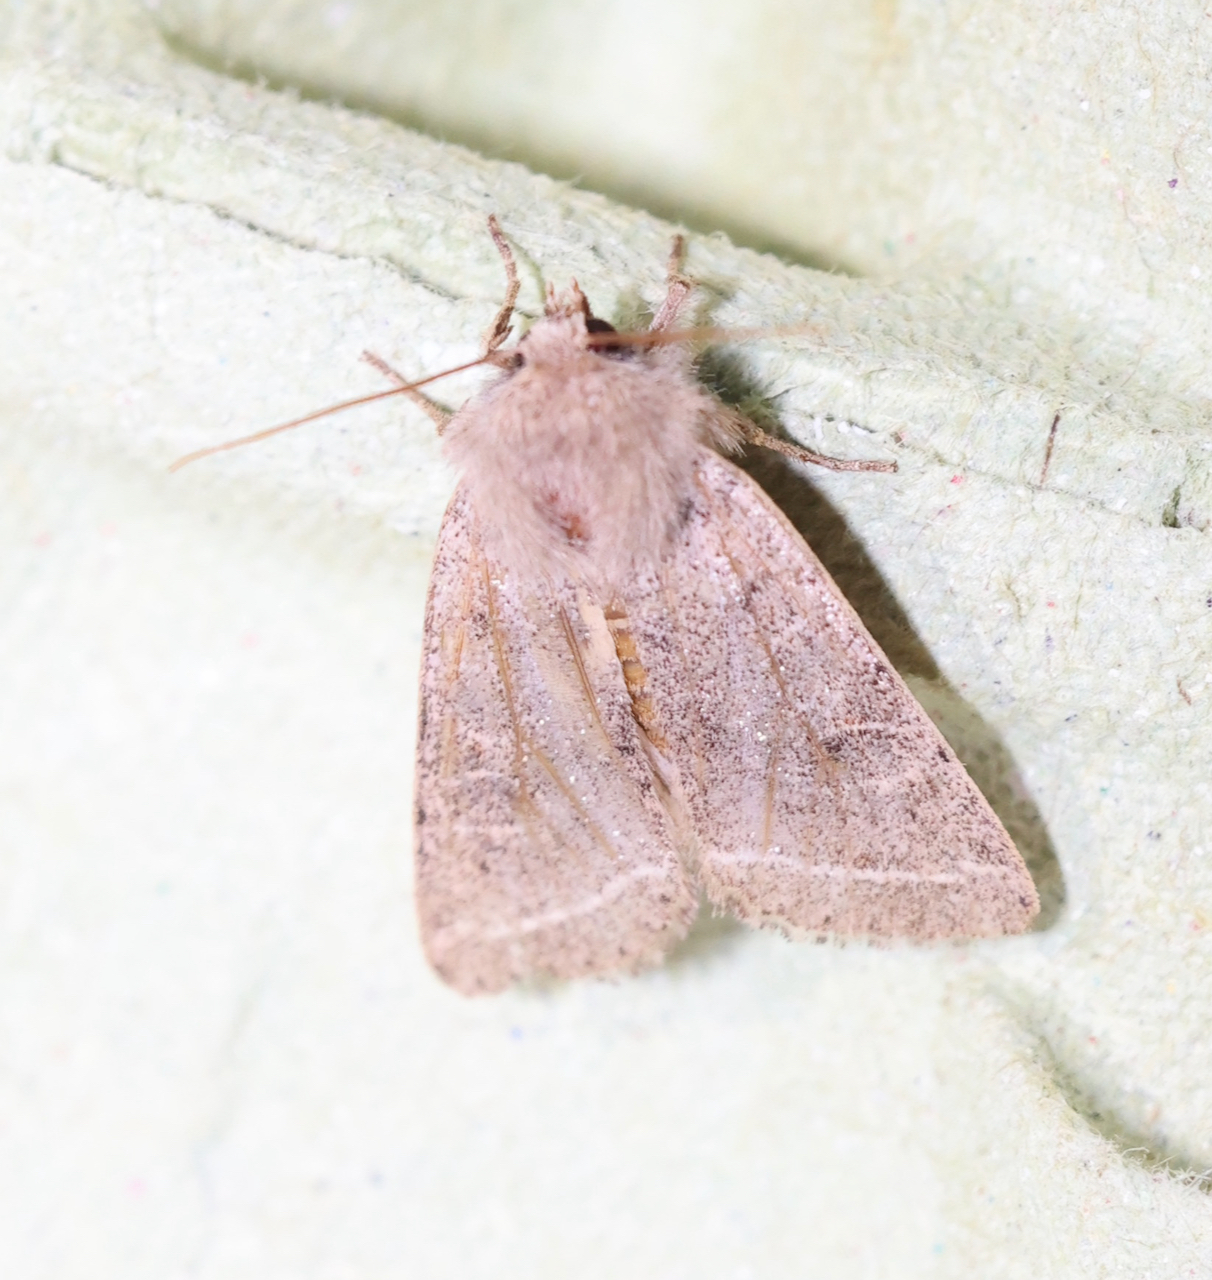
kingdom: Animalia
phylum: Arthropoda
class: Insecta
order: Lepidoptera
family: Noctuidae
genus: Orthosia
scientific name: Orthosia cerasi
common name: Common quaker
